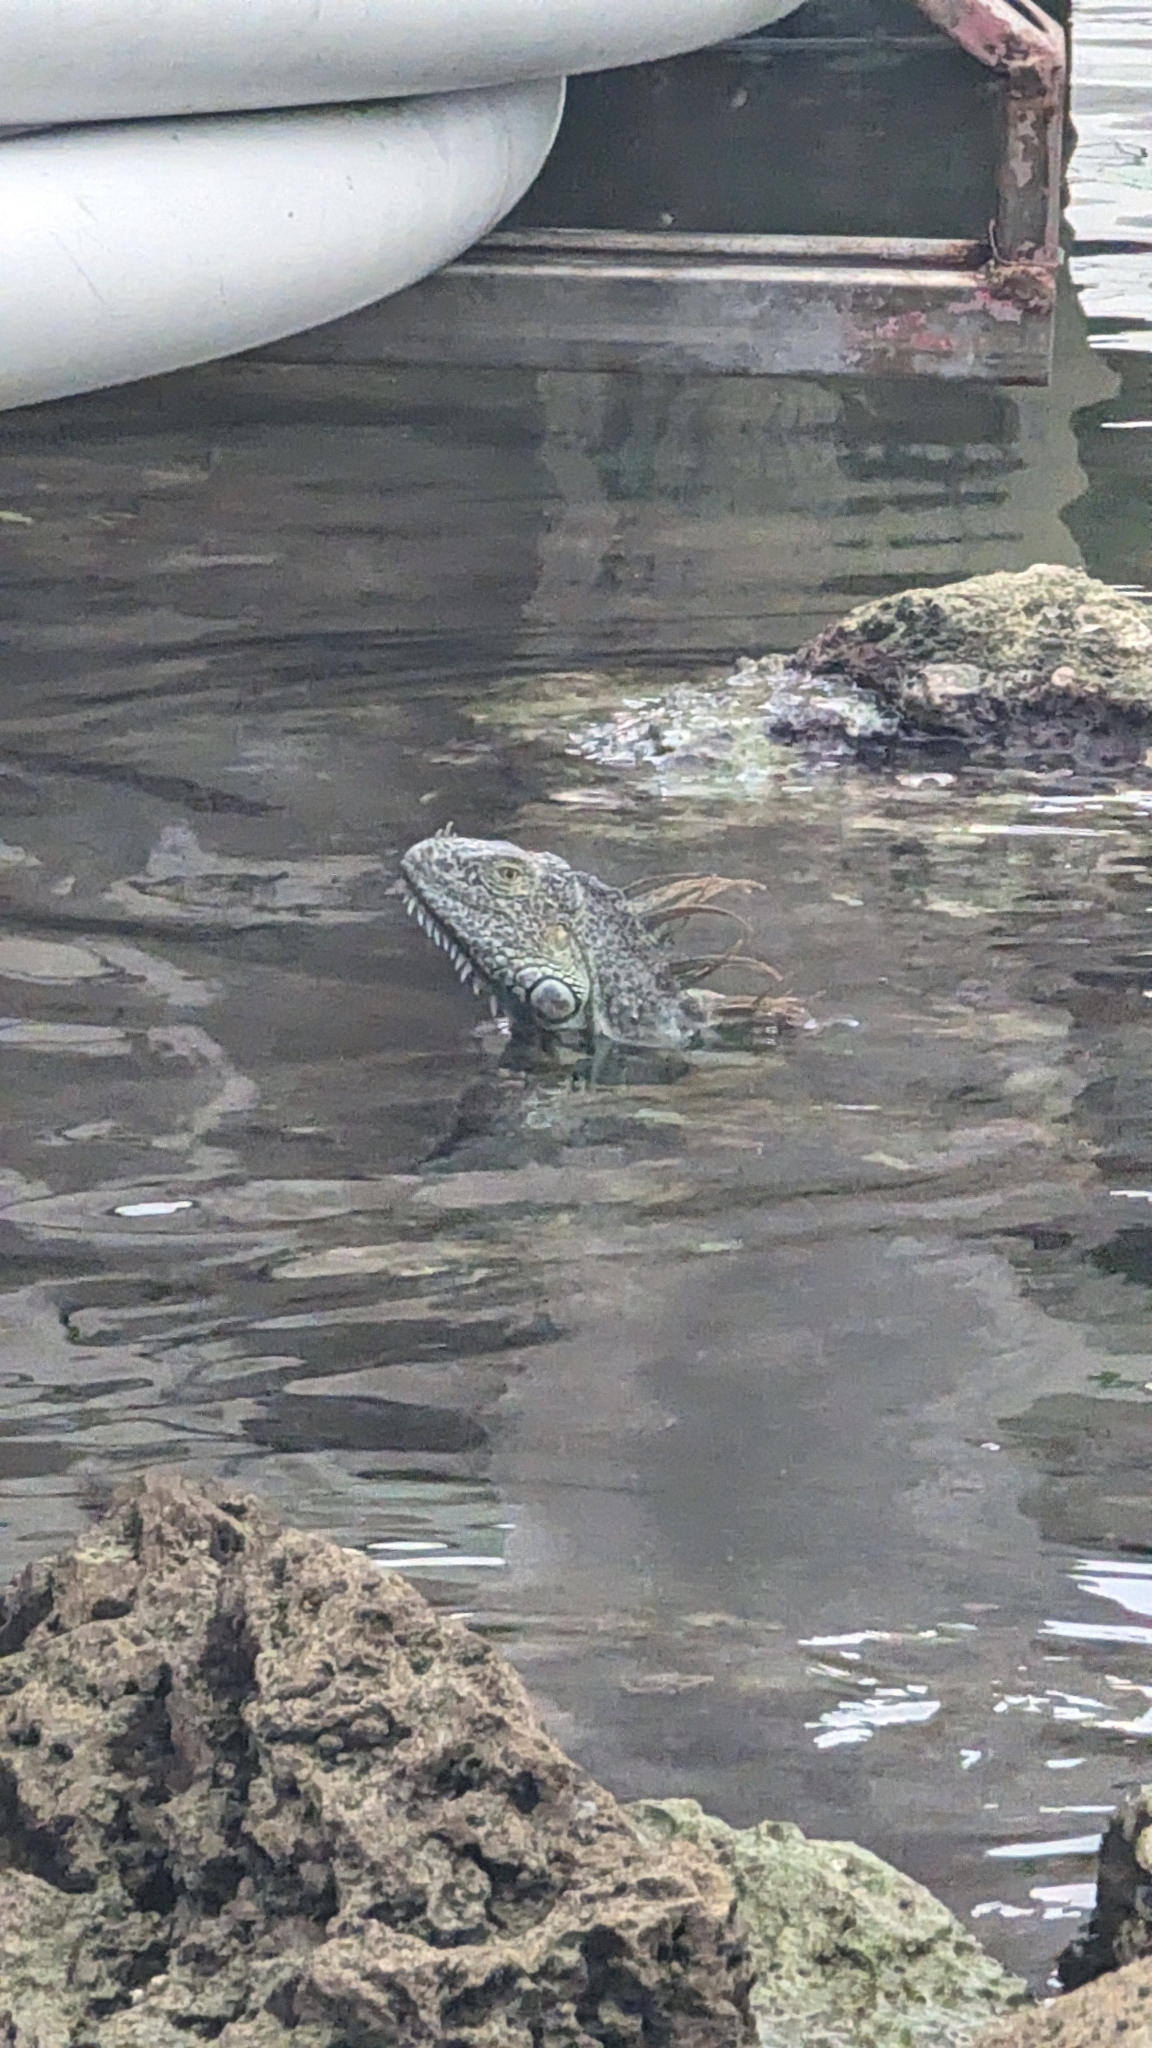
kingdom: Animalia
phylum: Chordata
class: Squamata
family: Iguanidae
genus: Iguana
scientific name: Iguana iguana
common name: Green iguana
